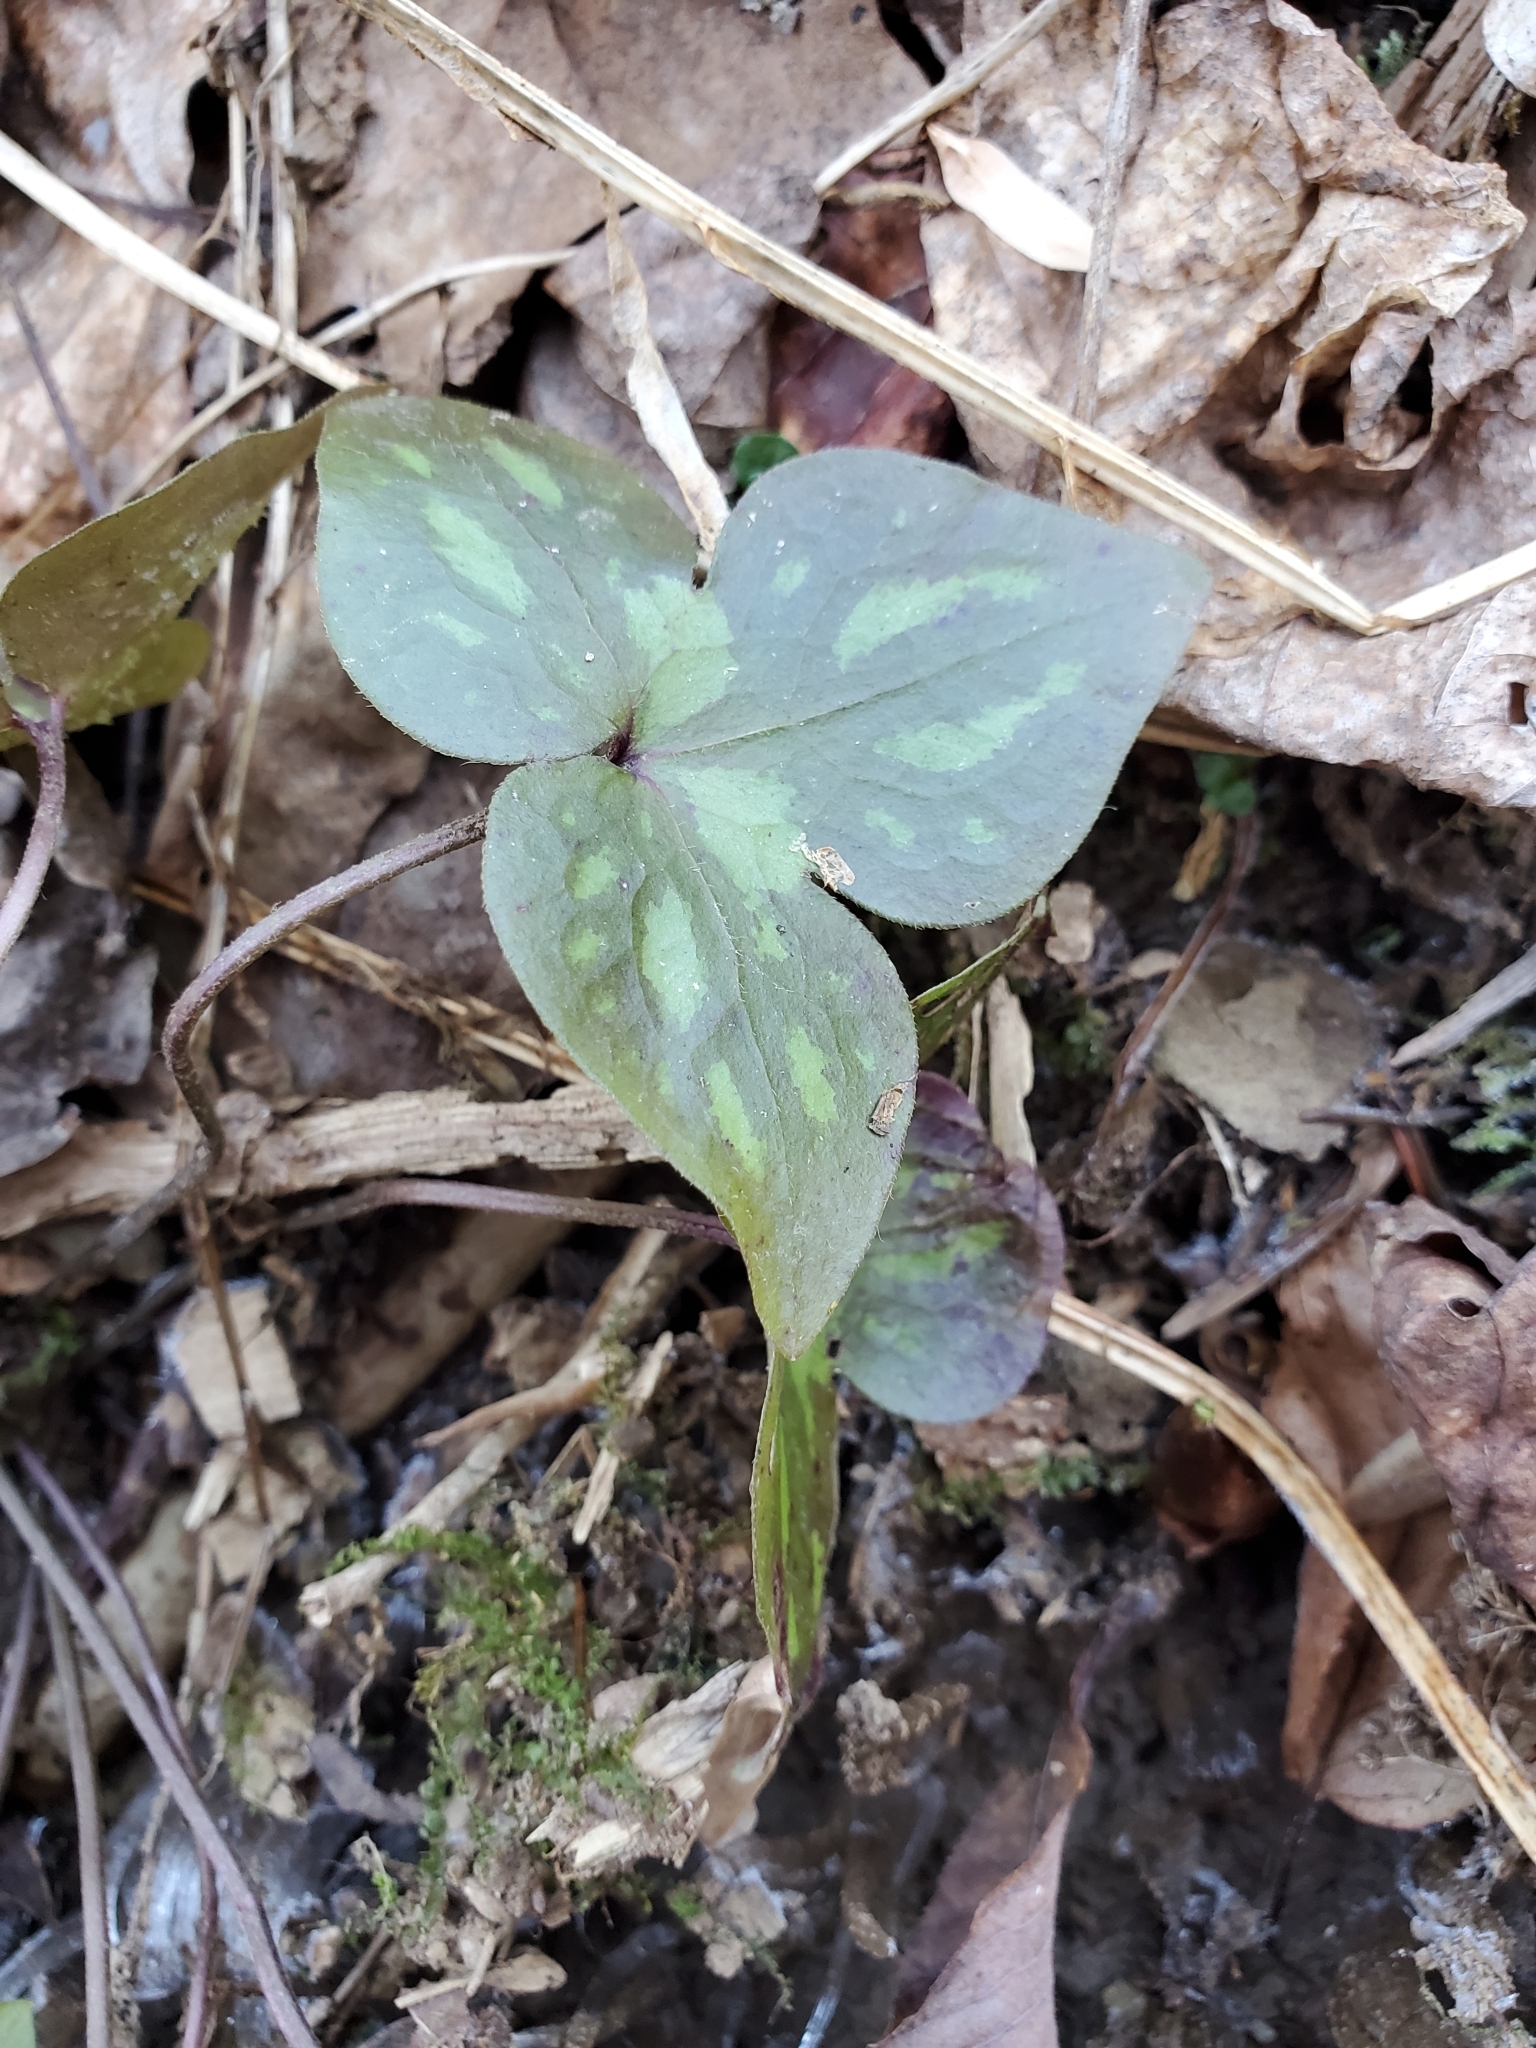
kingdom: Plantae
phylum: Tracheophyta
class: Magnoliopsida
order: Ranunculales
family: Ranunculaceae
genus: Hepatica
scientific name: Hepatica acutiloba
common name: Sharp-lobed hepatica
